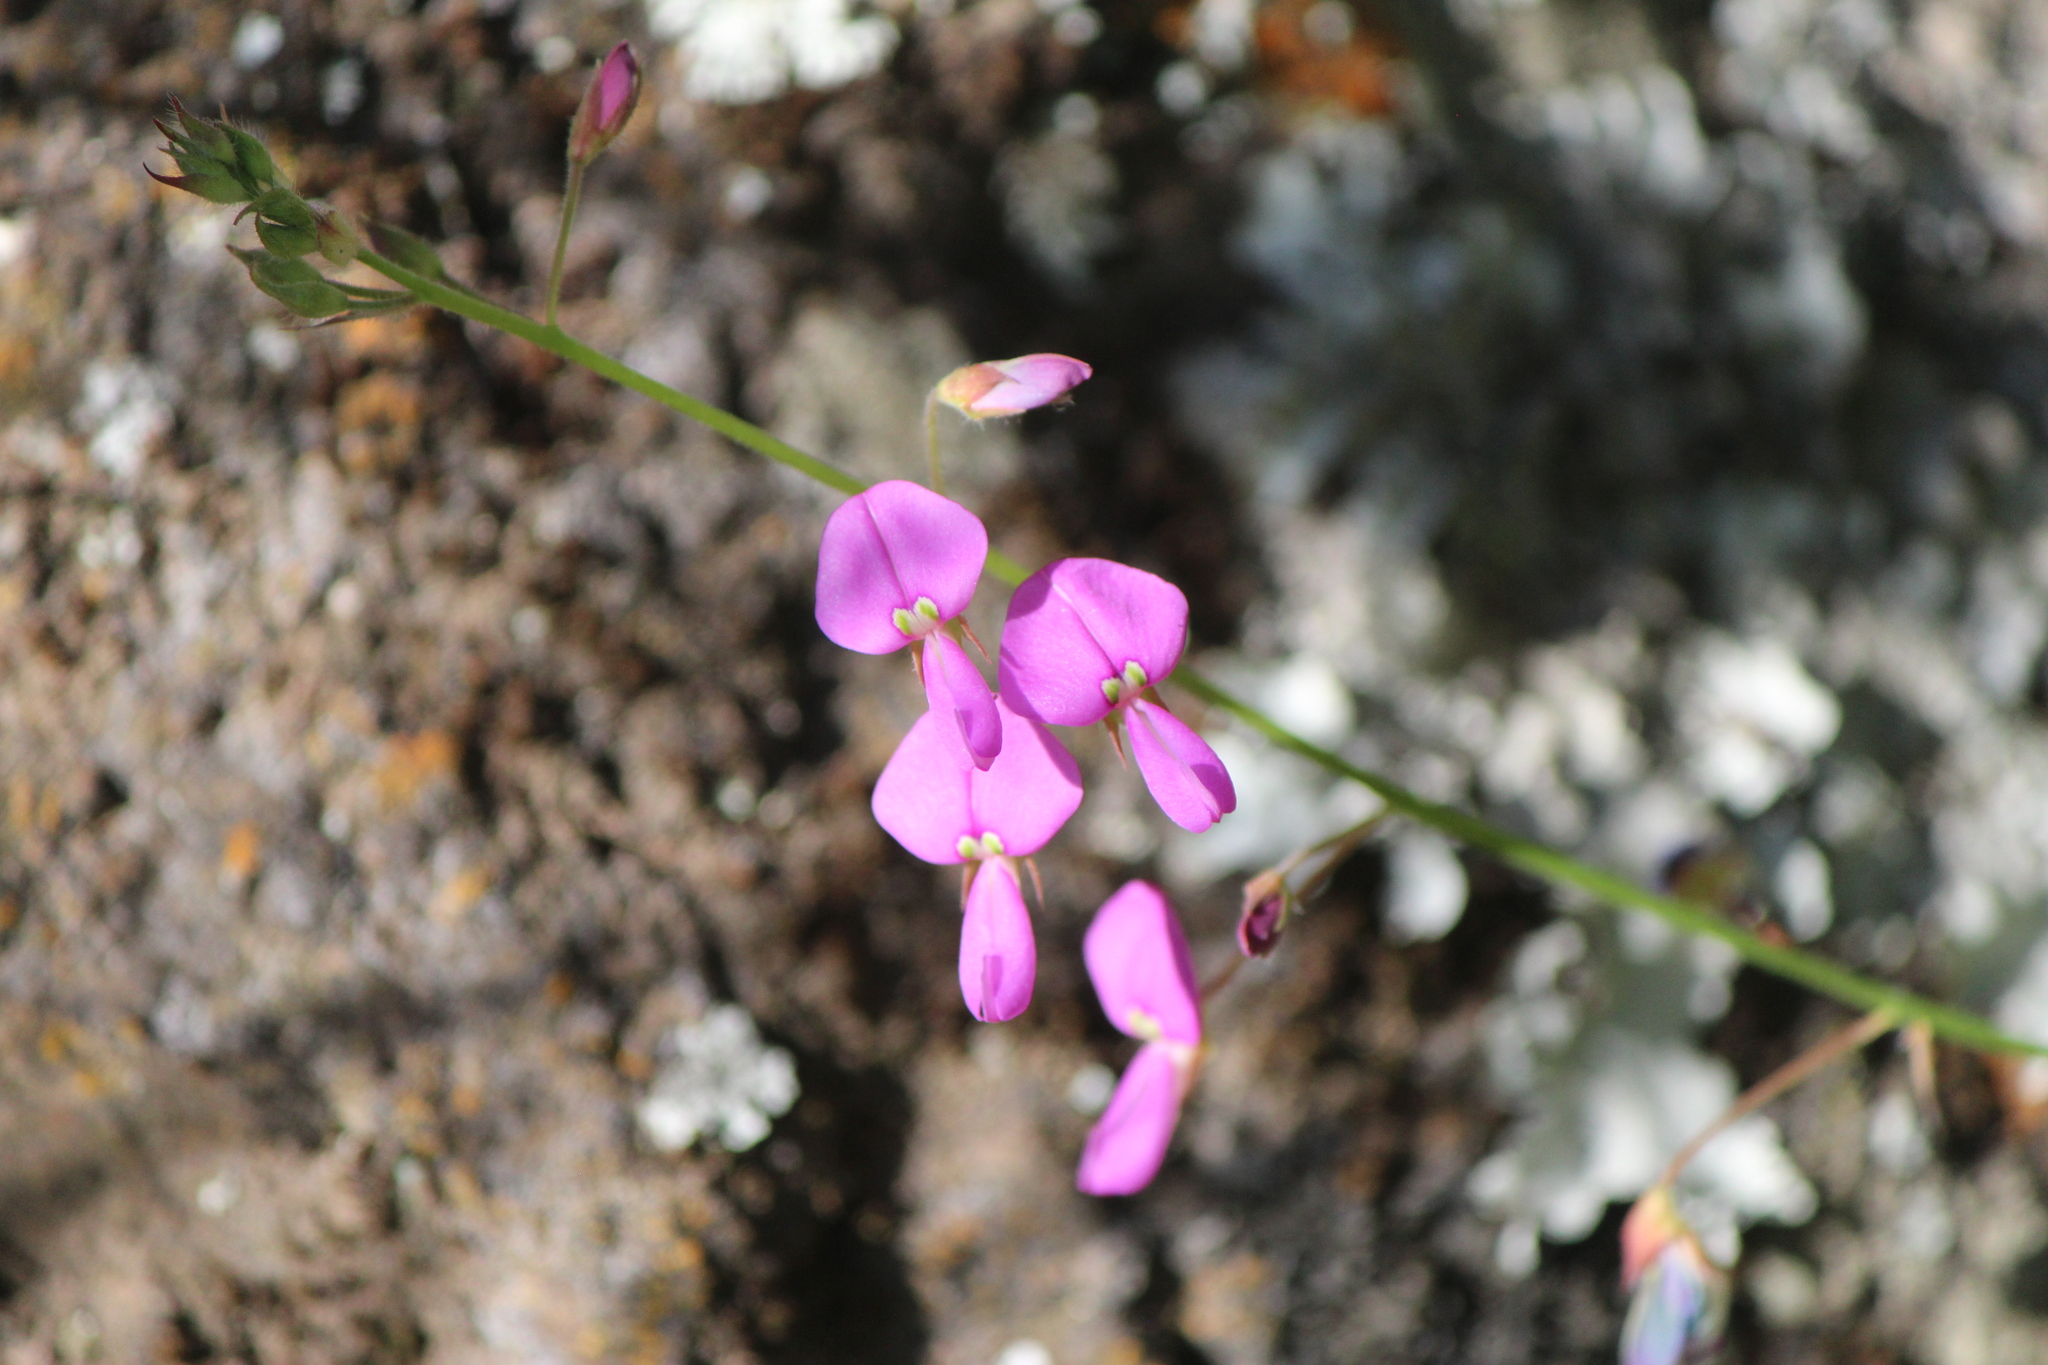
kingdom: Plantae
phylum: Tracheophyta
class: Magnoliopsida
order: Fabales
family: Fabaceae
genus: Desmodium
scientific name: Desmodium paniculatum
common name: Panicled tick-clover
